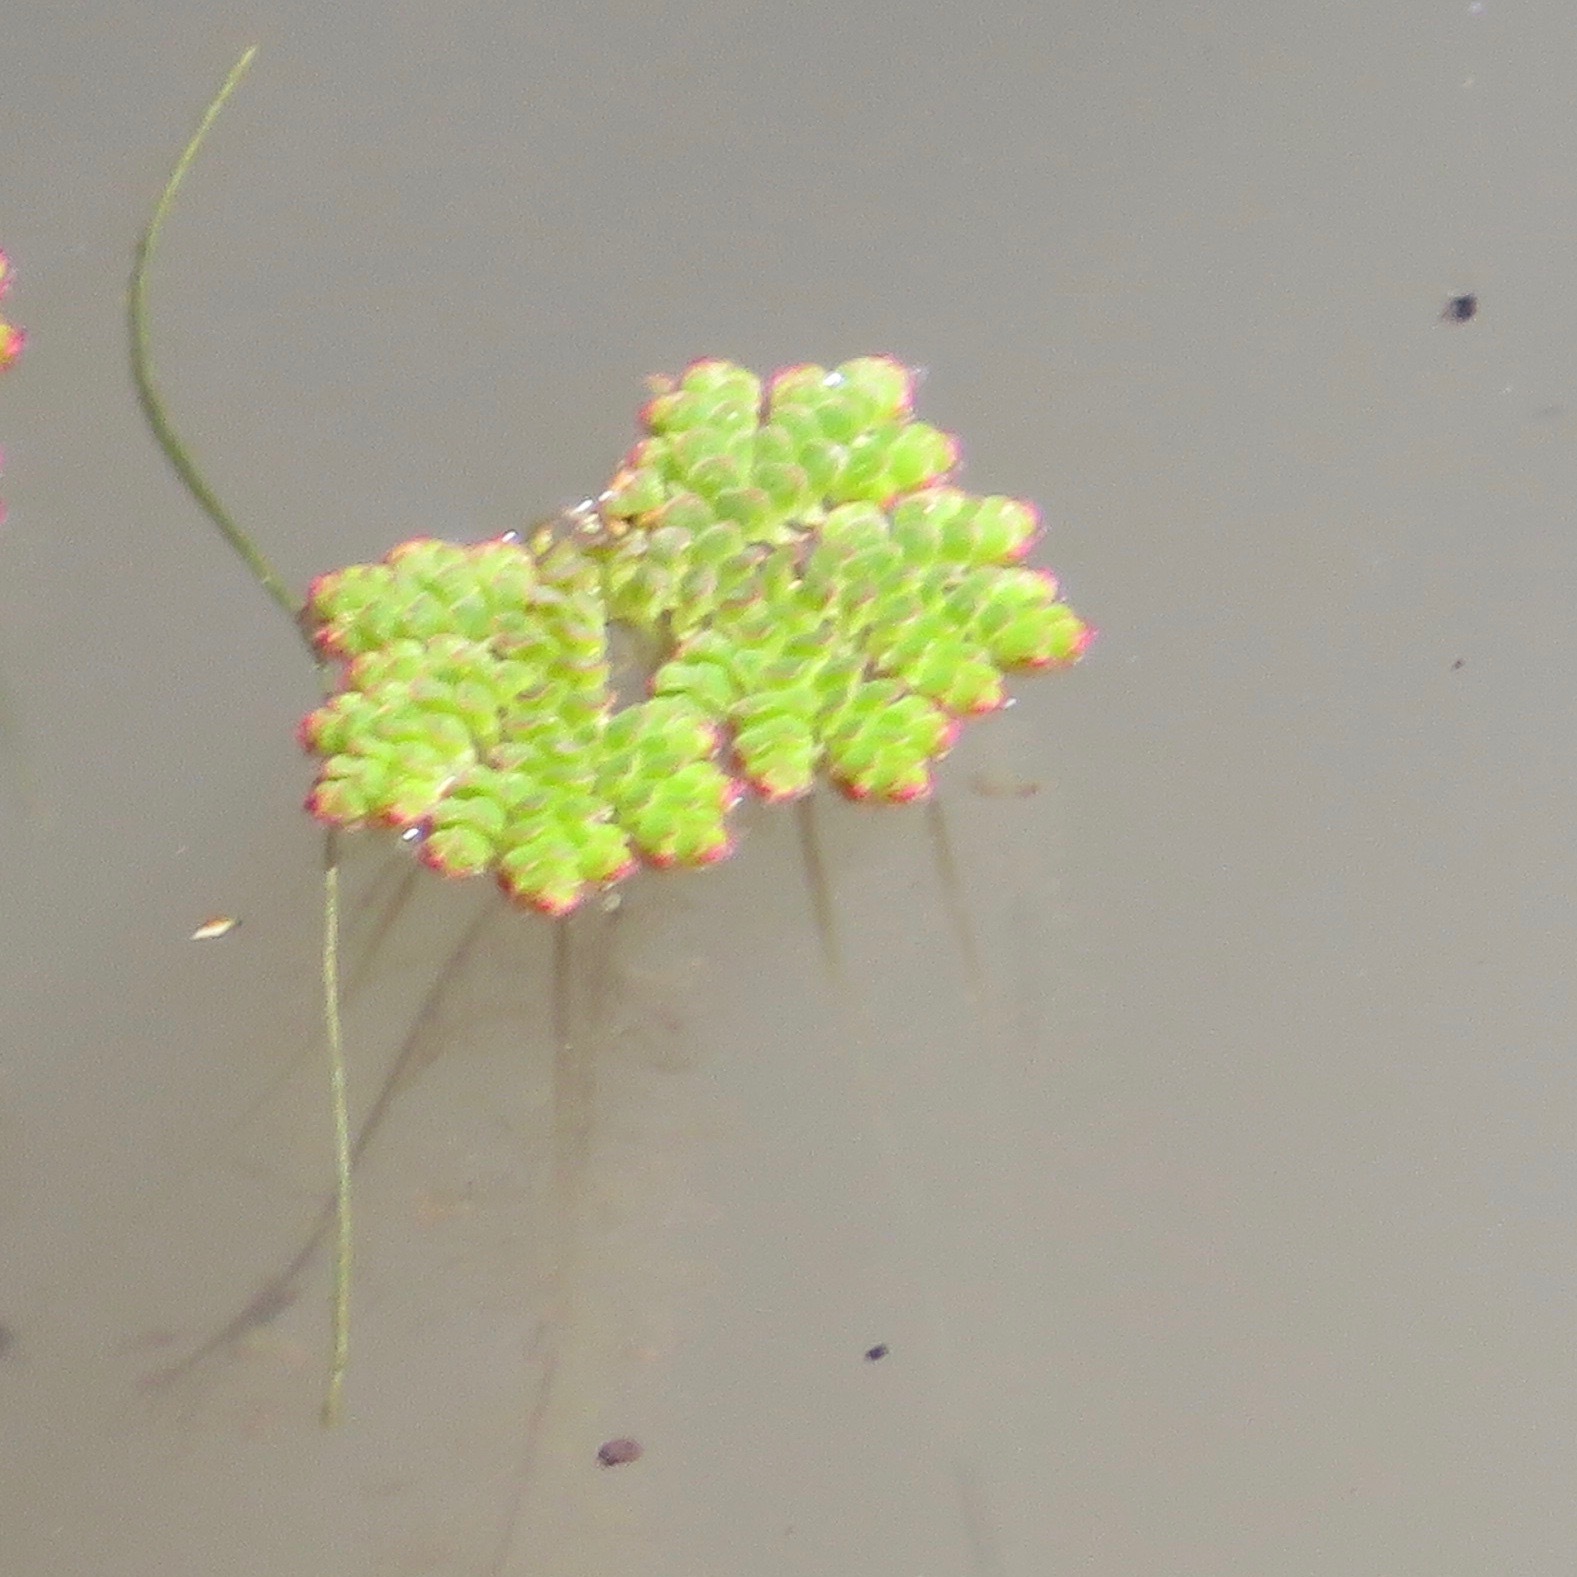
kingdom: Plantae
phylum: Tracheophyta
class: Polypodiopsida
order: Salviniales
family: Salviniaceae
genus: Azolla
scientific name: Azolla filiculoides
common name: Water fern
